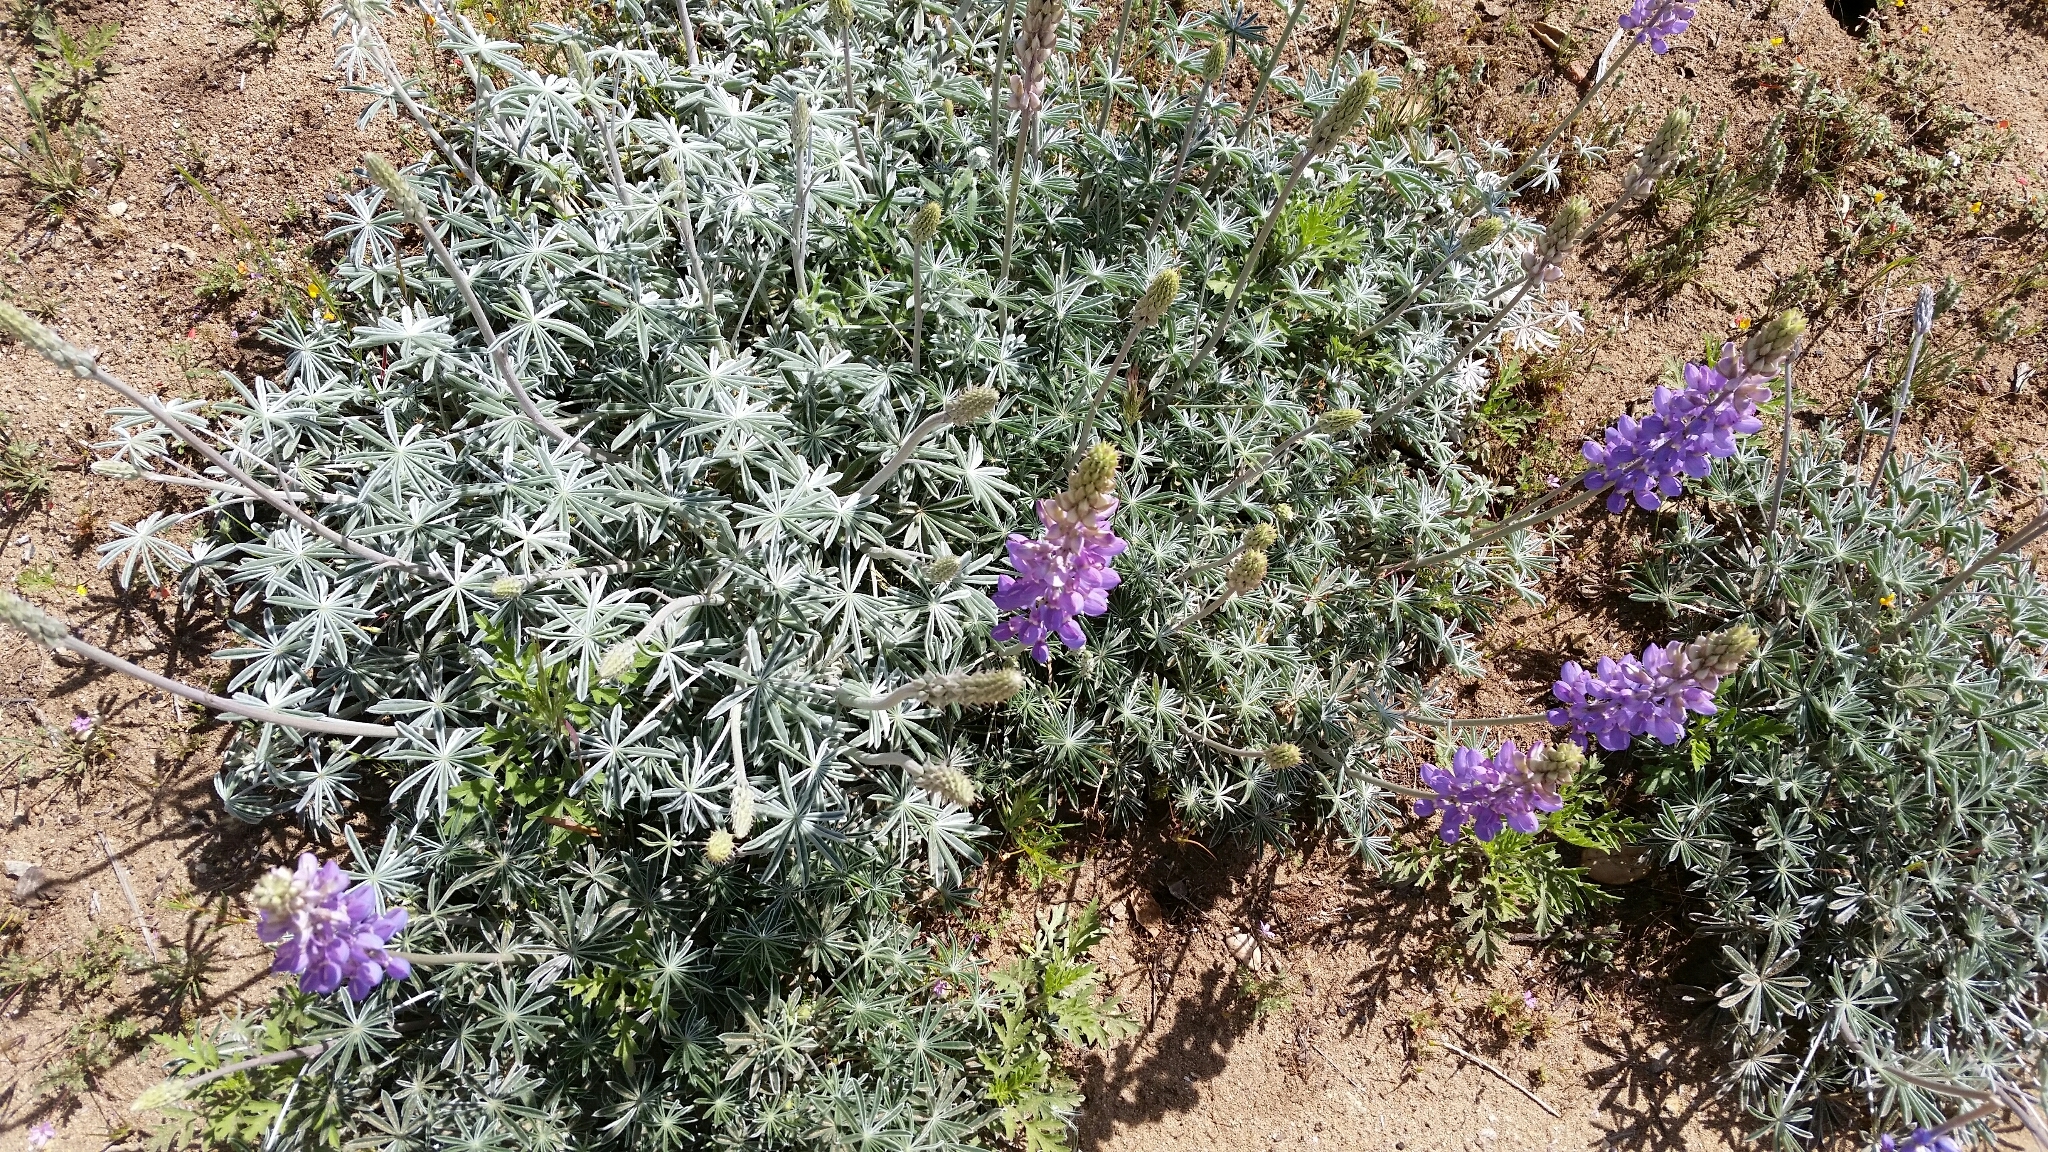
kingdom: Plantae
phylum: Tracheophyta
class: Magnoliopsida
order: Fabales
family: Fabaceae
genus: Lupinus
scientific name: Lupinus excubitus
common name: Grape soda lupine
